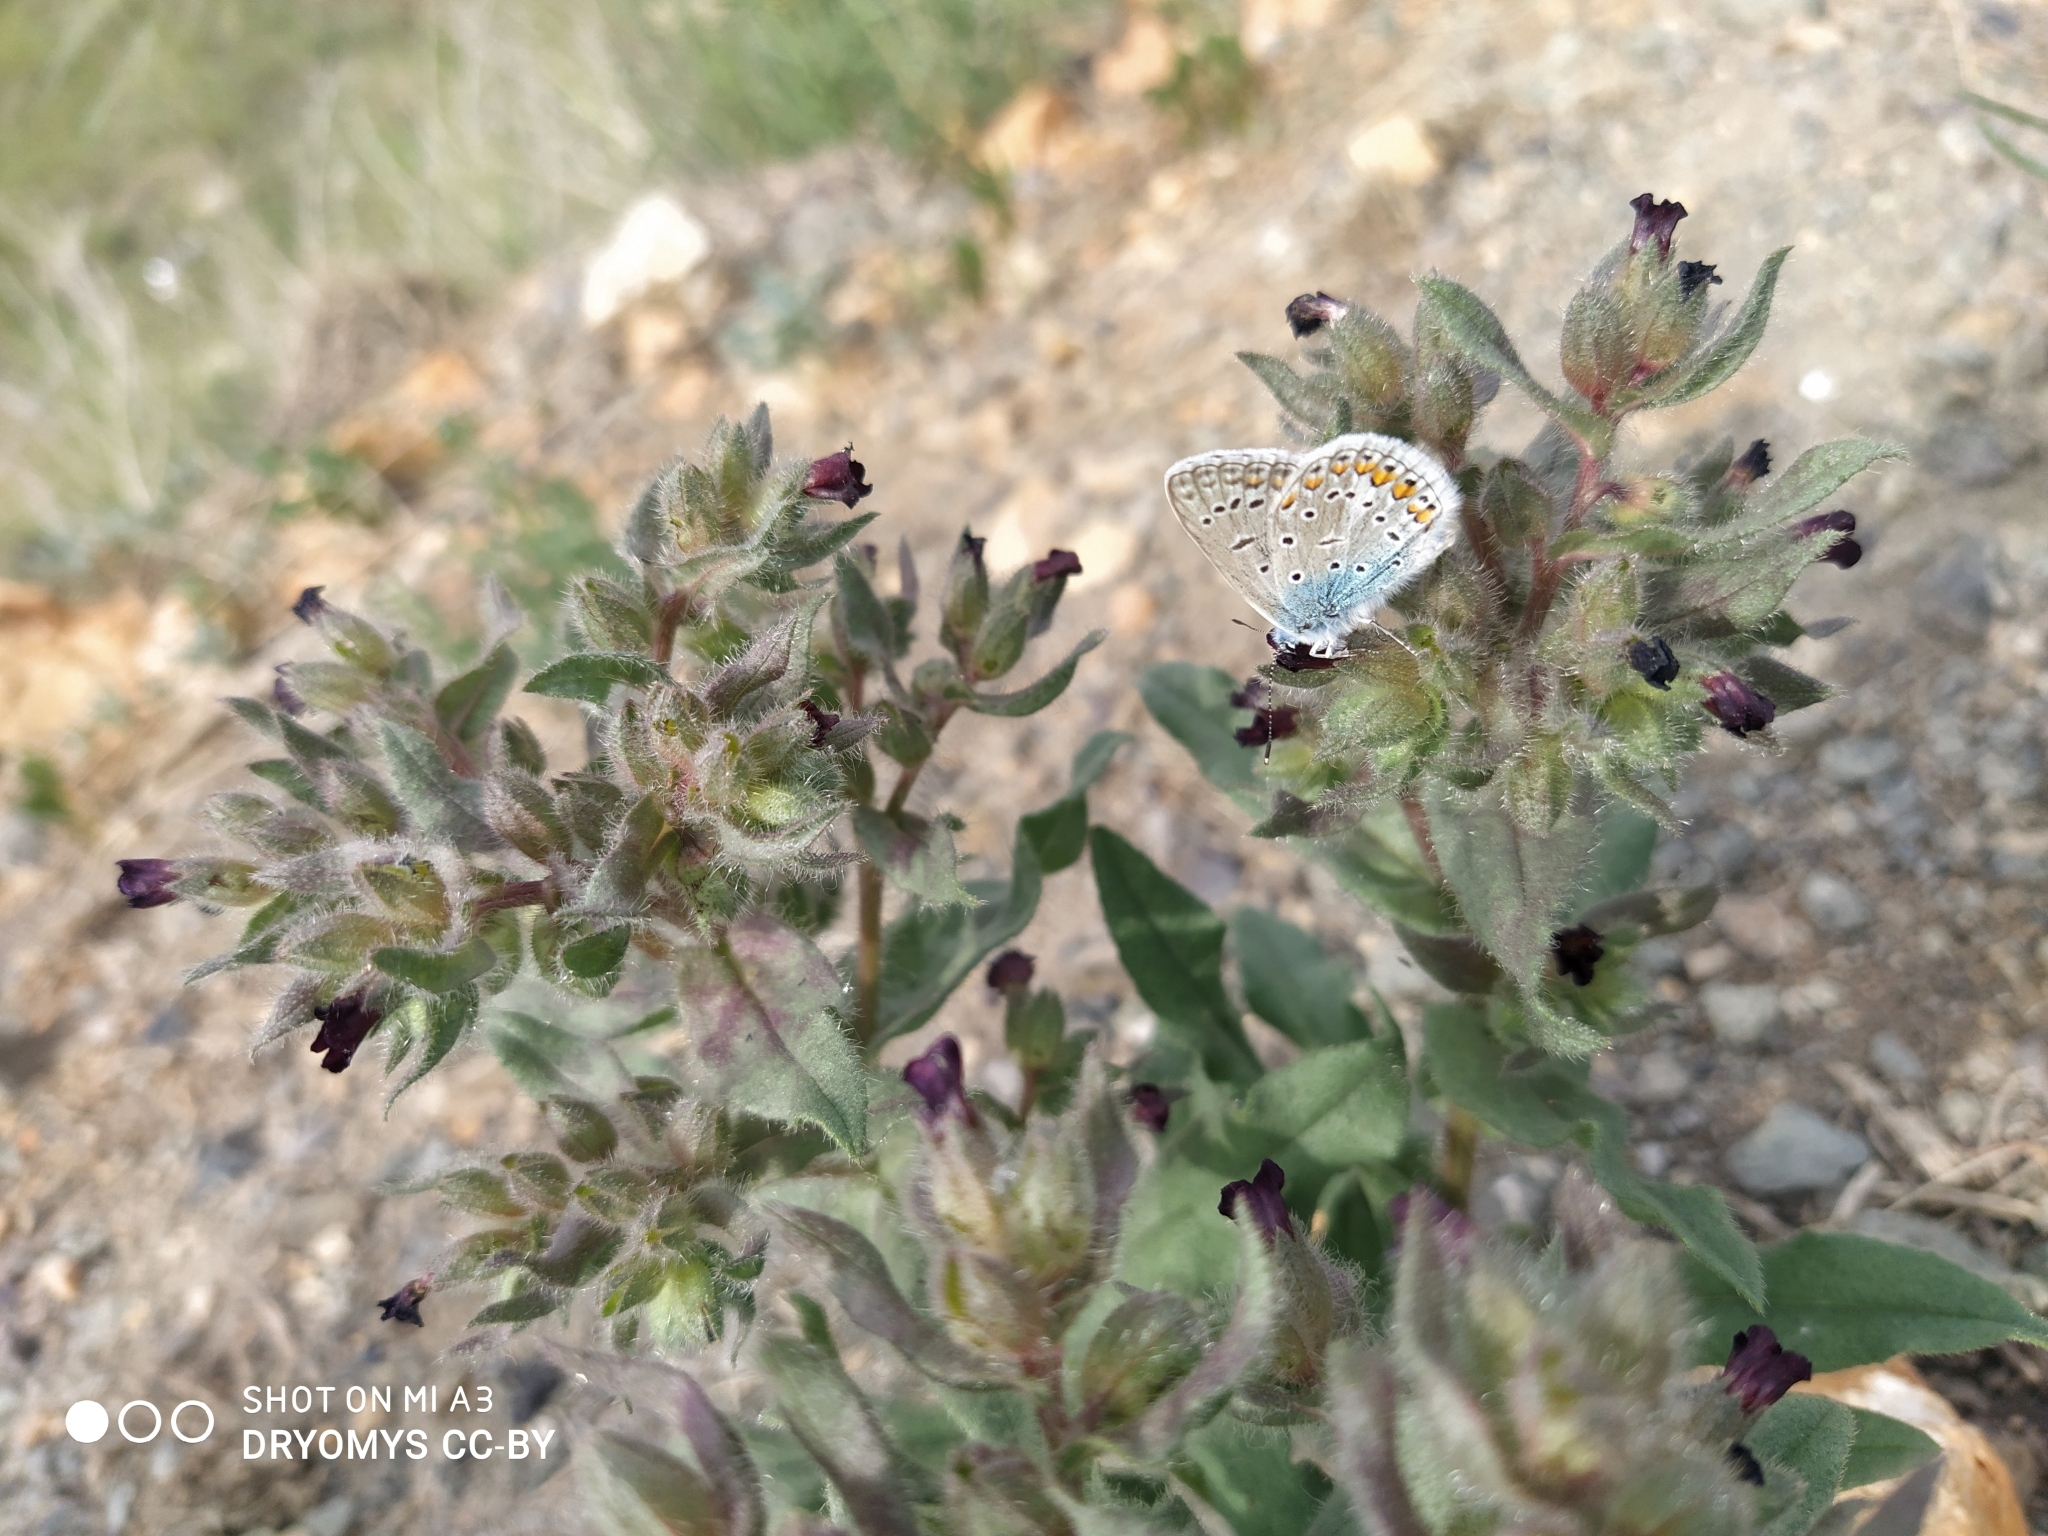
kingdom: Plantae
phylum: Tracheophyta
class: Magnoliopsida
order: Boraginales
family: Boraginaceae
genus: Nonea
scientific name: Nonea pulla
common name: Brown nonea
